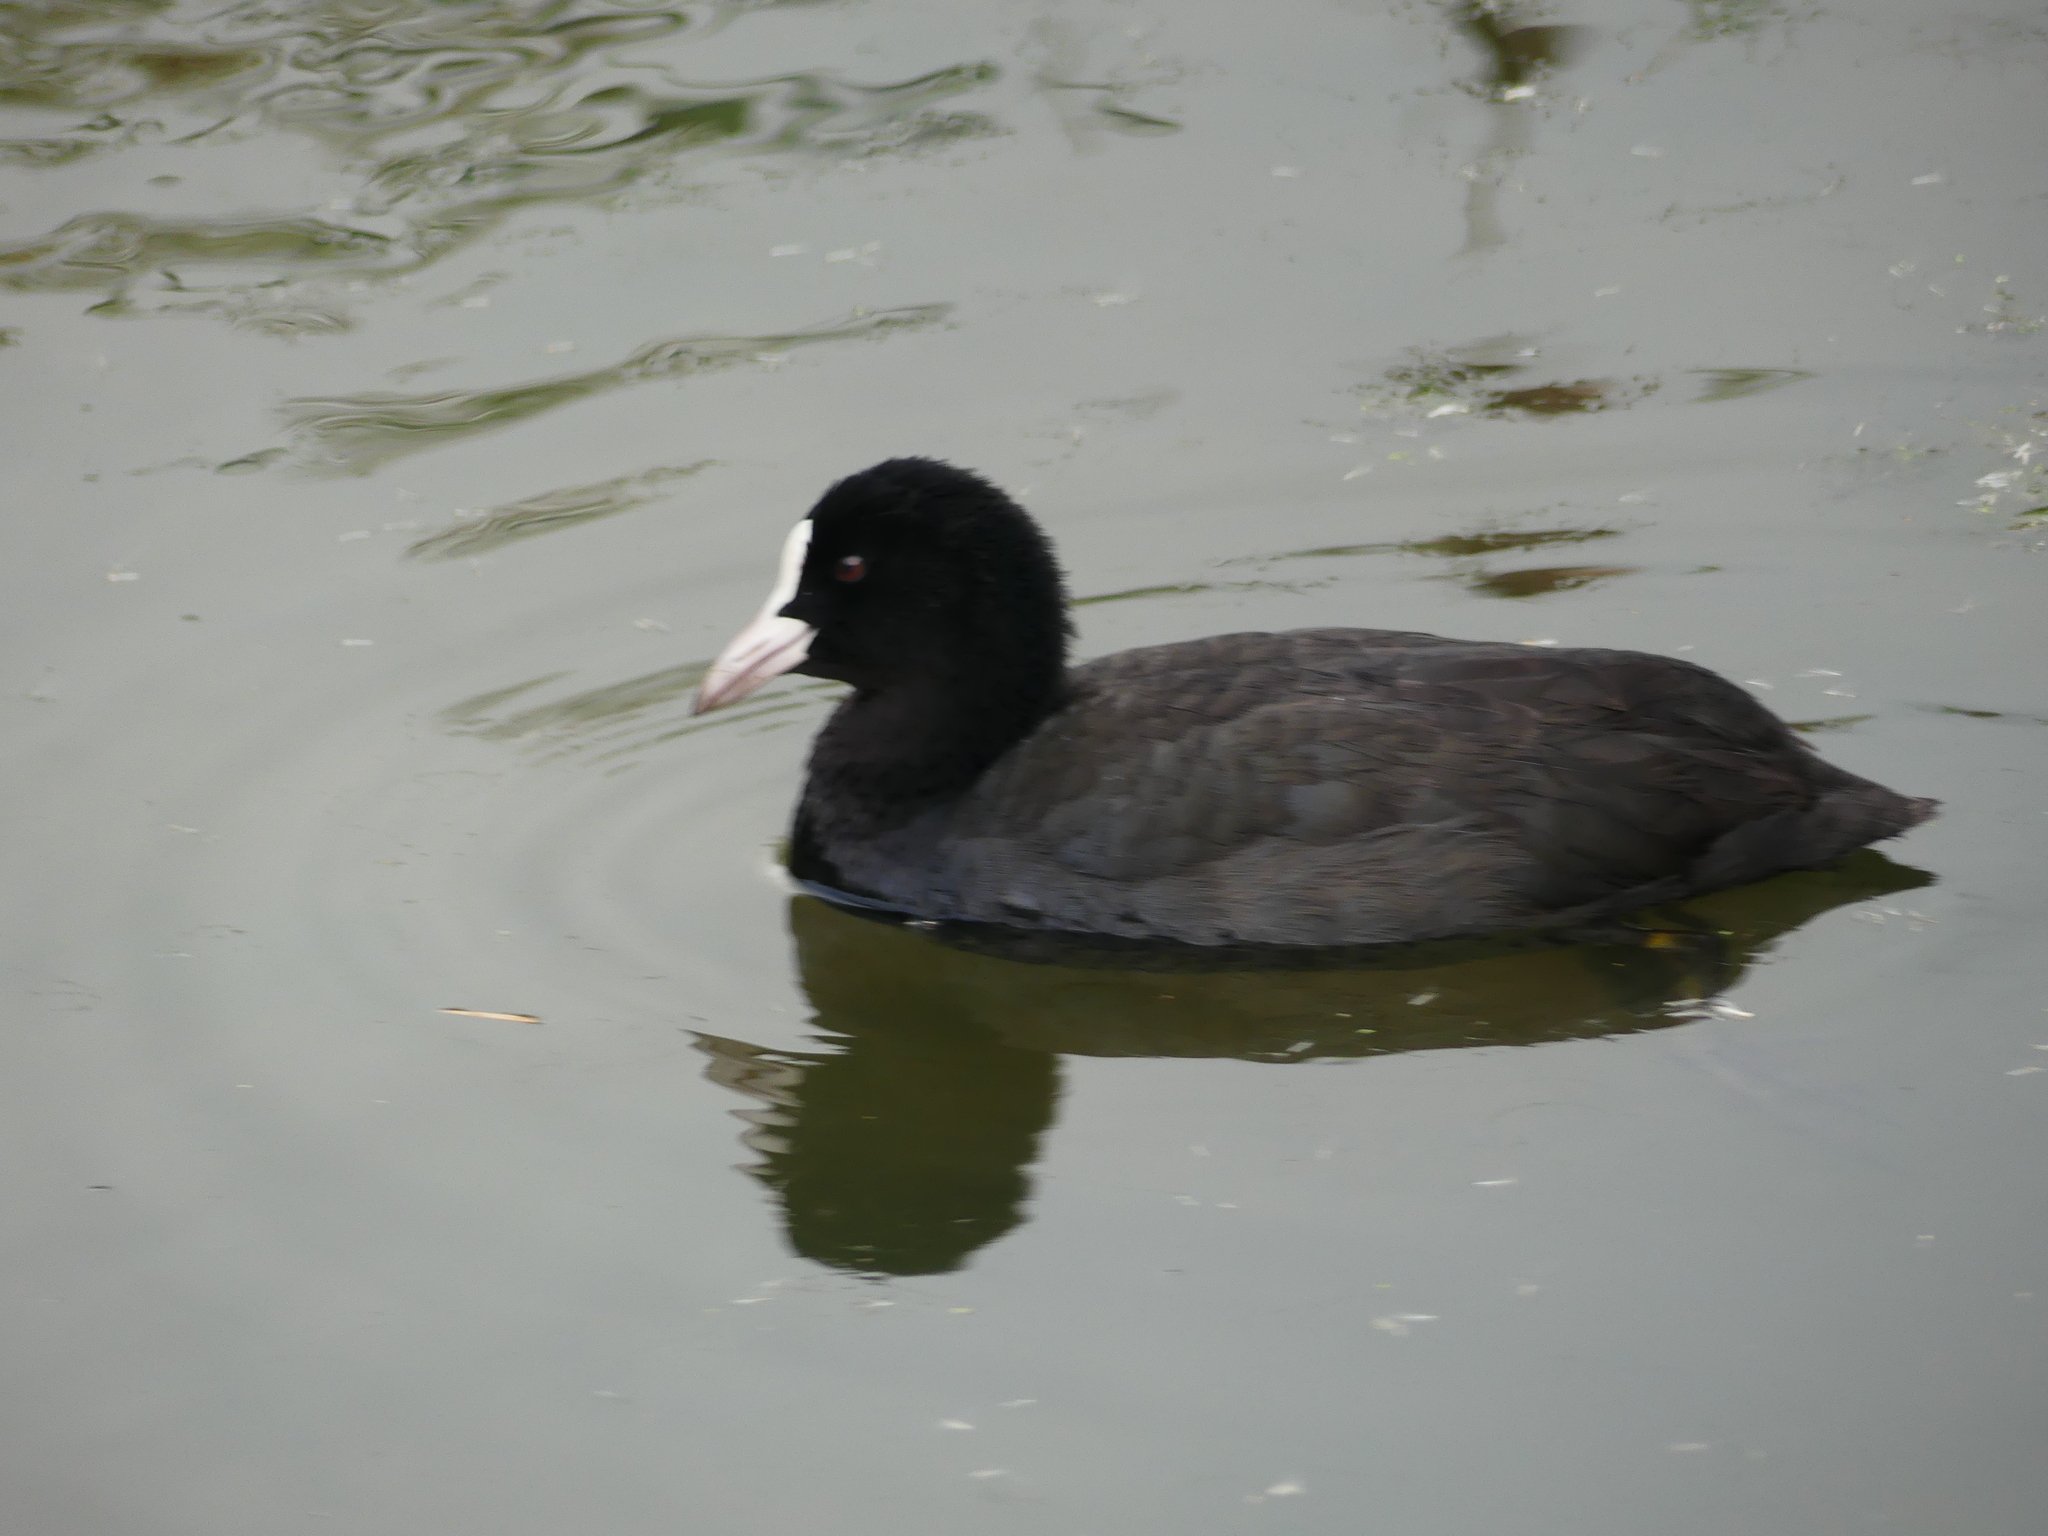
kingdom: Animalia
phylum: Chordata
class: Aves
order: Gruiformes
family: Rallidae
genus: Fulica
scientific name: Fulica atra
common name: Eurasian coot
